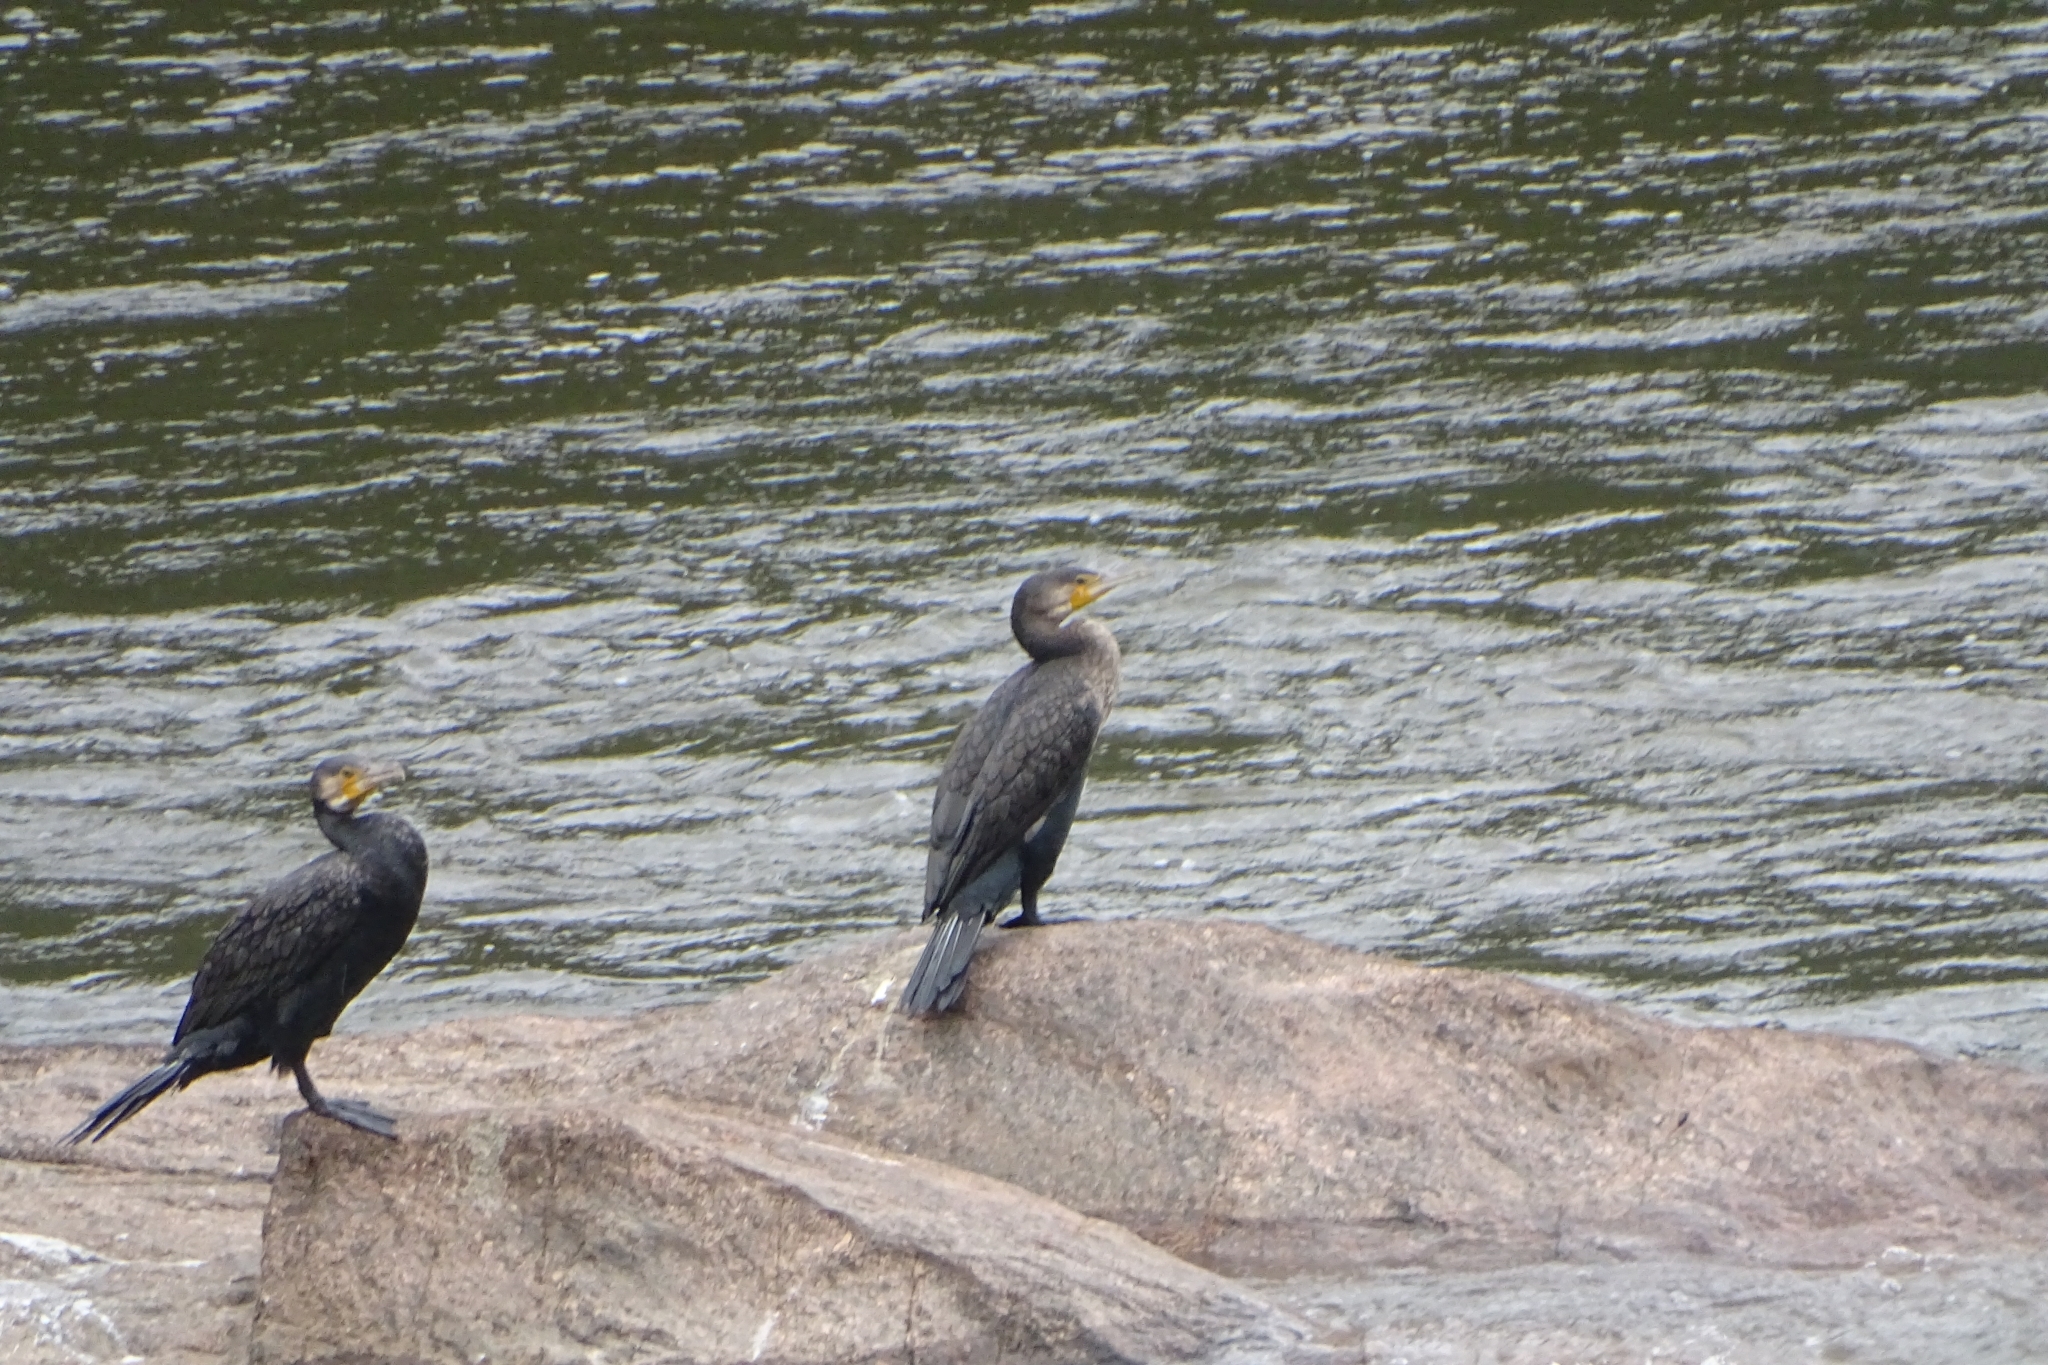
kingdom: Animalia
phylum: Chordata
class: Aves
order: Suliformes
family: Phalacrocoracidae
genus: Phalacrocorax
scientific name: Phalacrocorax carbo
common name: Great cormorant
